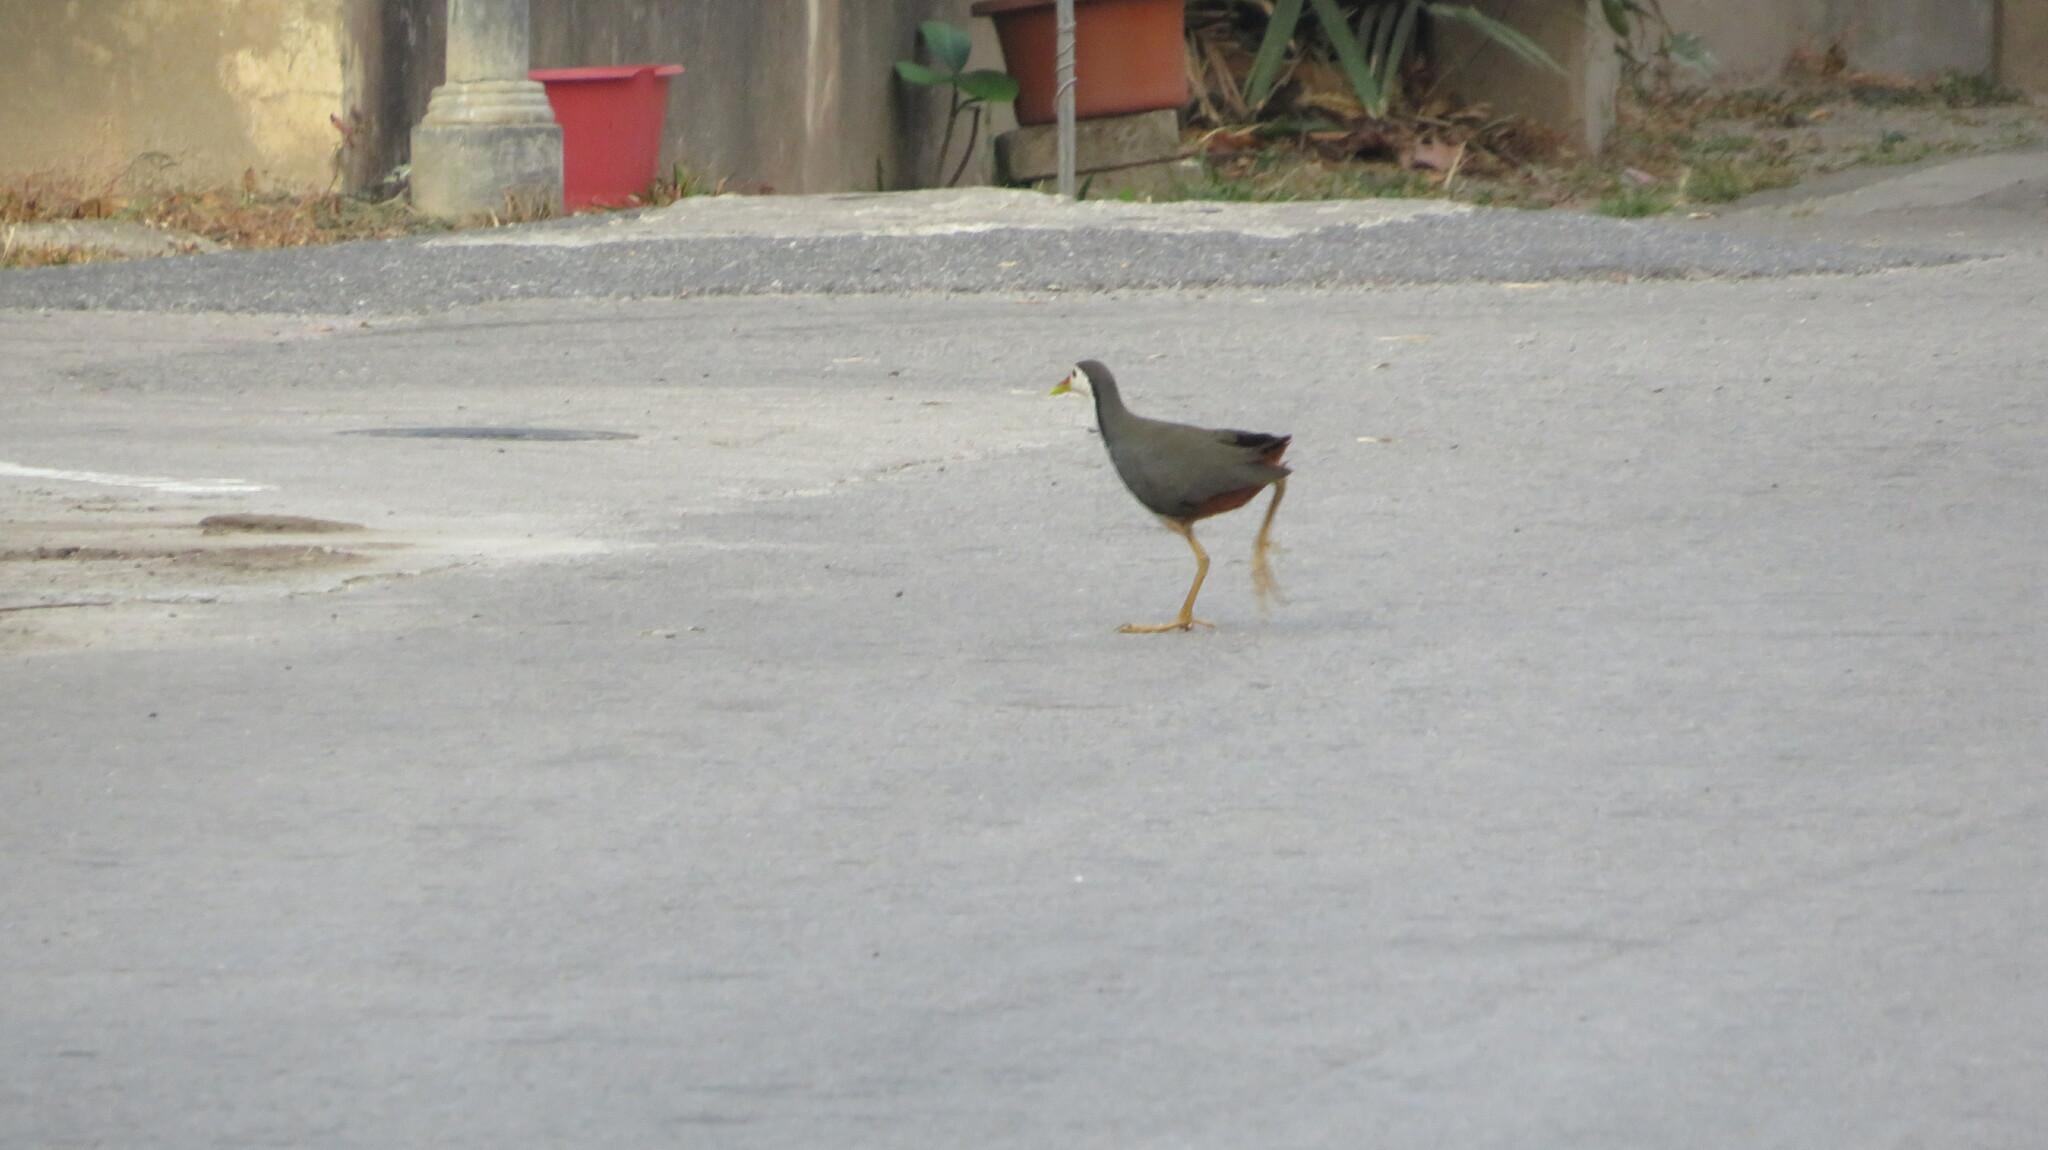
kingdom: Animalia
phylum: Chordata
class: Aves
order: Gruiformes
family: Rallidae
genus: Amaurornis
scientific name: Amaurornis phoenicurus
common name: White-breasted waterhen
